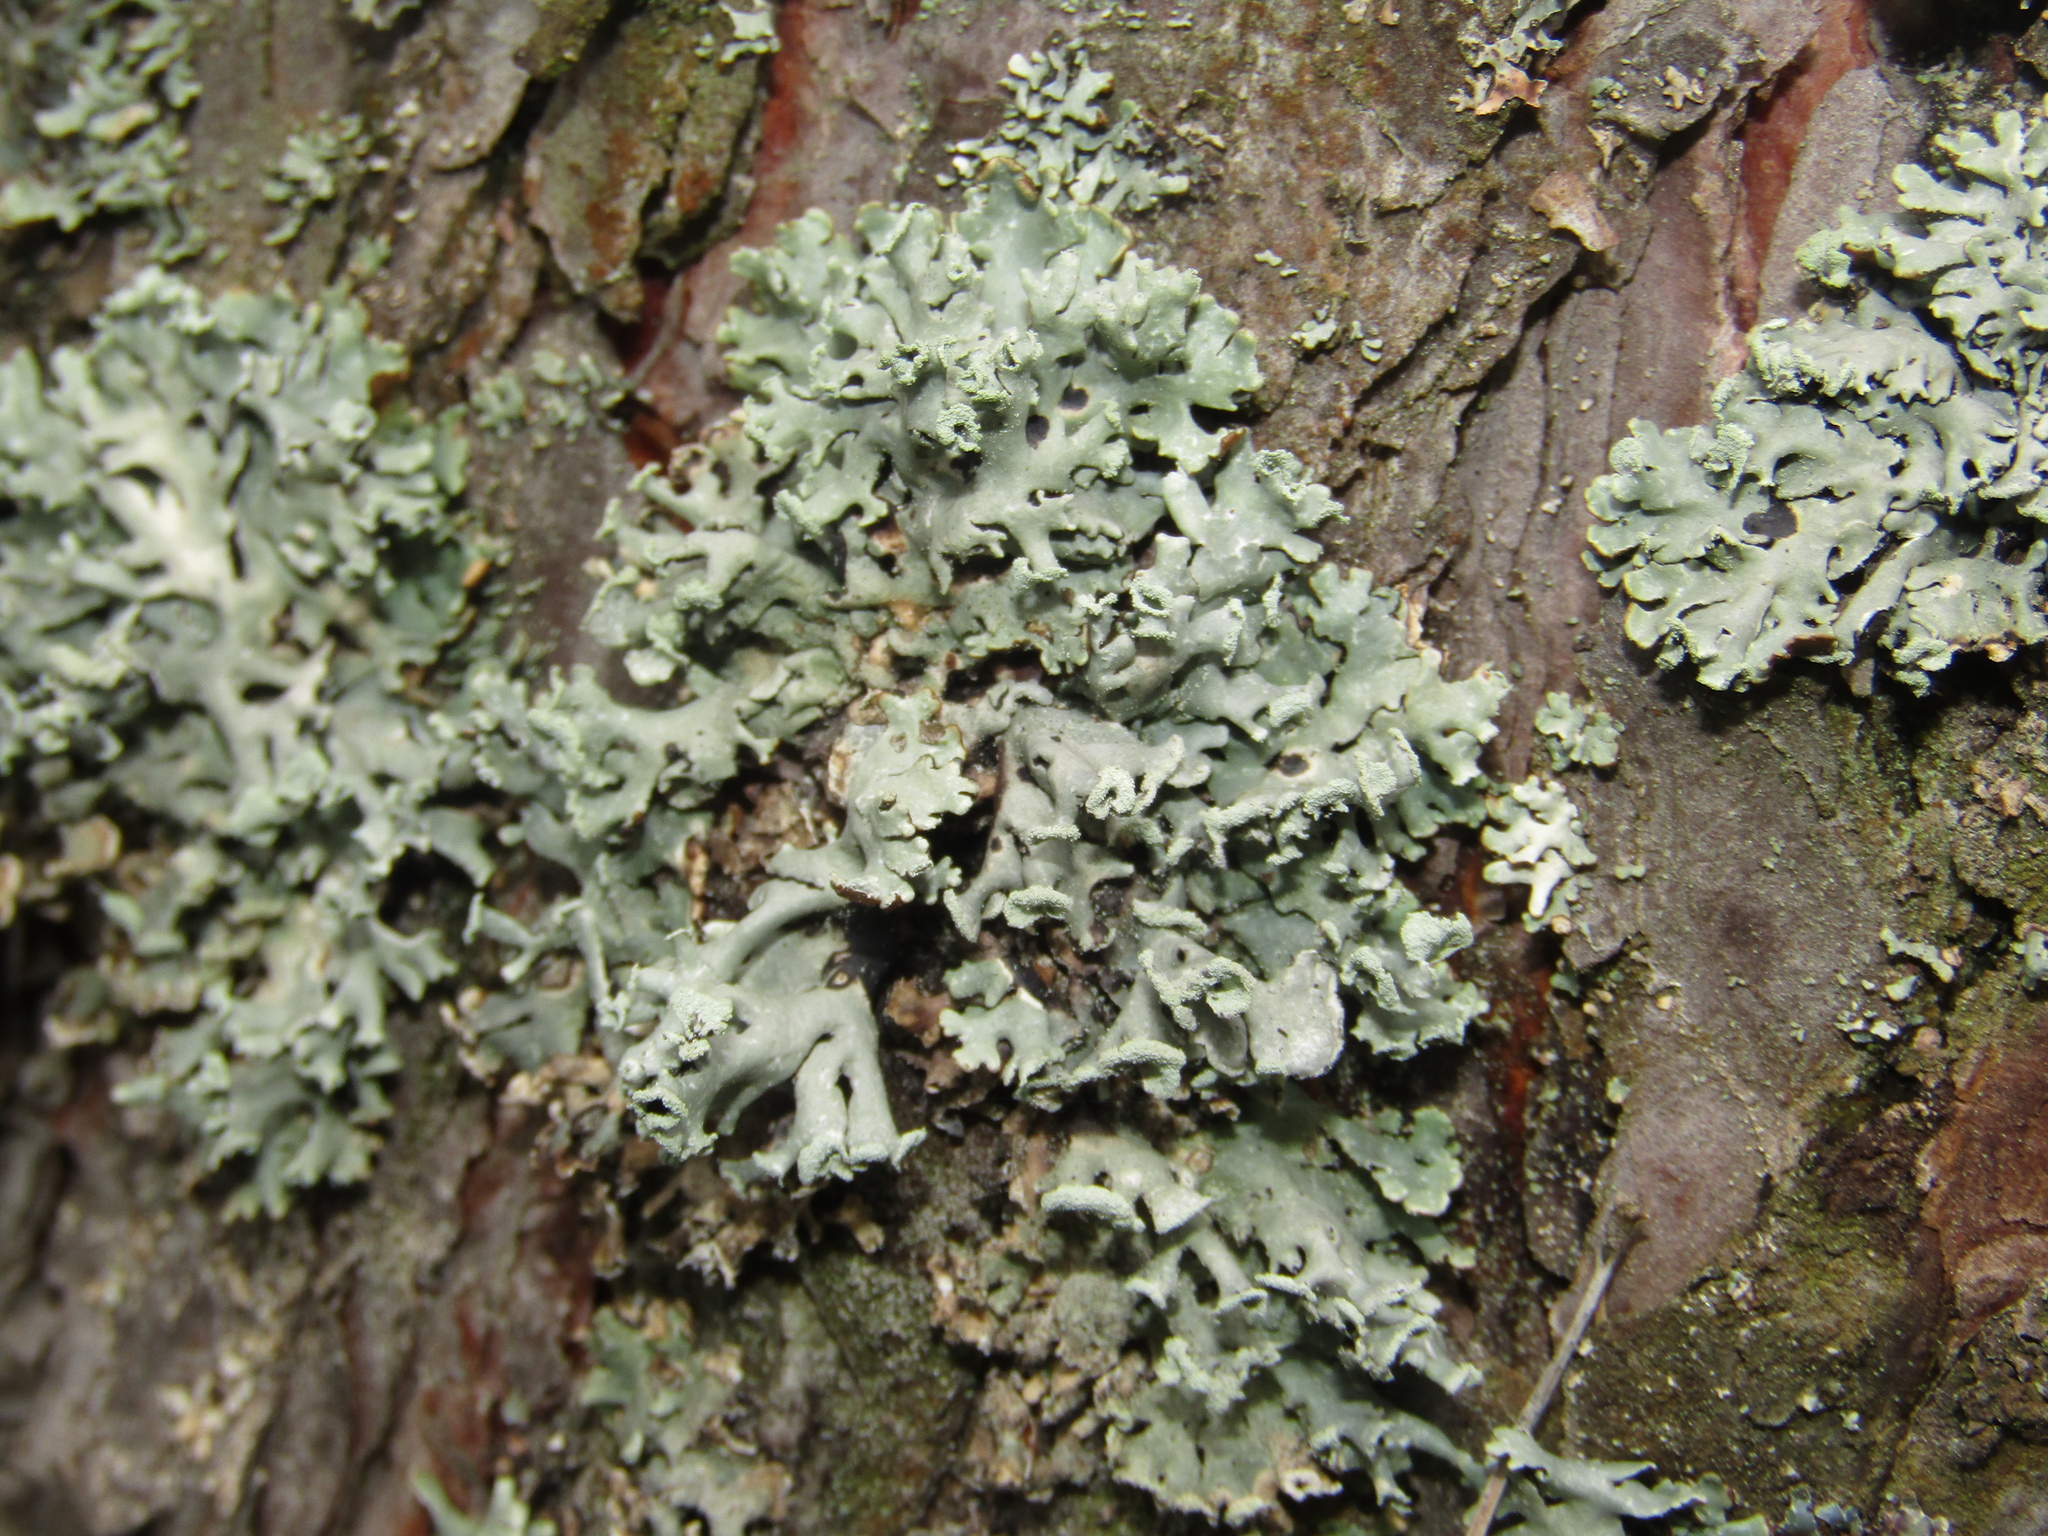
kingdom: Fungi
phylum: Ascomycota
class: Lecanoromycetes
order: Lecanorales
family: Parmeliaceae
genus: Hypogymnia
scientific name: Hypogymnia physodes
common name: Dark crottle
